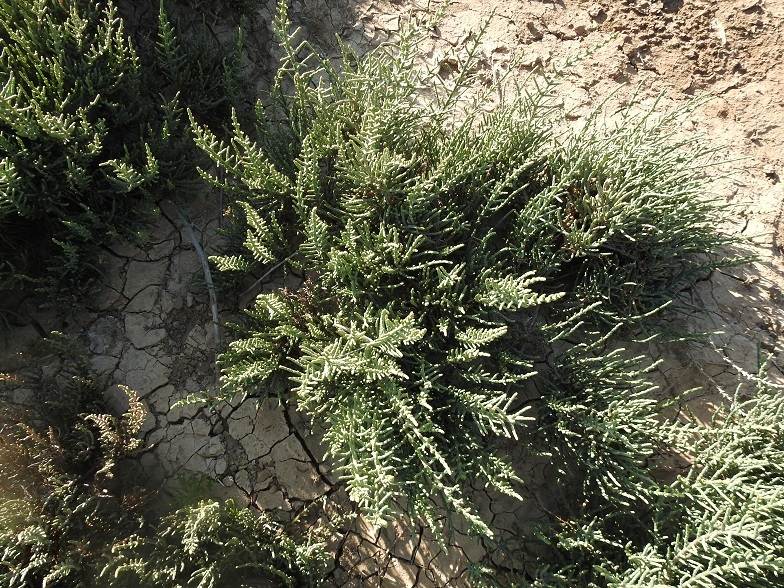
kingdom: Plantae
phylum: Tracheophyta
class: Magnoliopsida
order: Caryophyllales
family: Amaranthaceae
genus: Arthrocaulon
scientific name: Arthrocaulon macrostachyum
